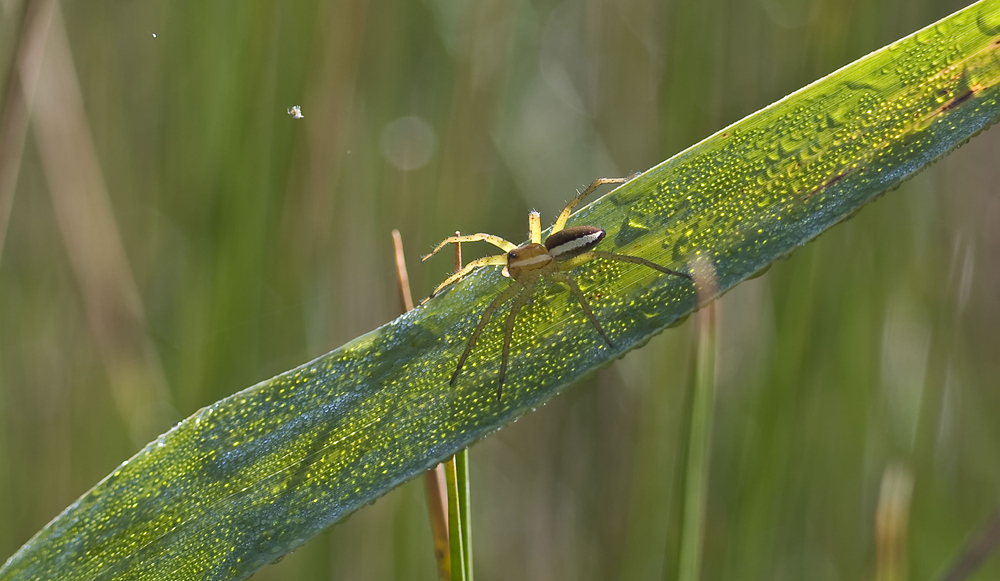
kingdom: Animalia
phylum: Arthropoda
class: Arachnida
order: Araneae
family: Pisauridae
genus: Dolomedes
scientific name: Dolomedes
